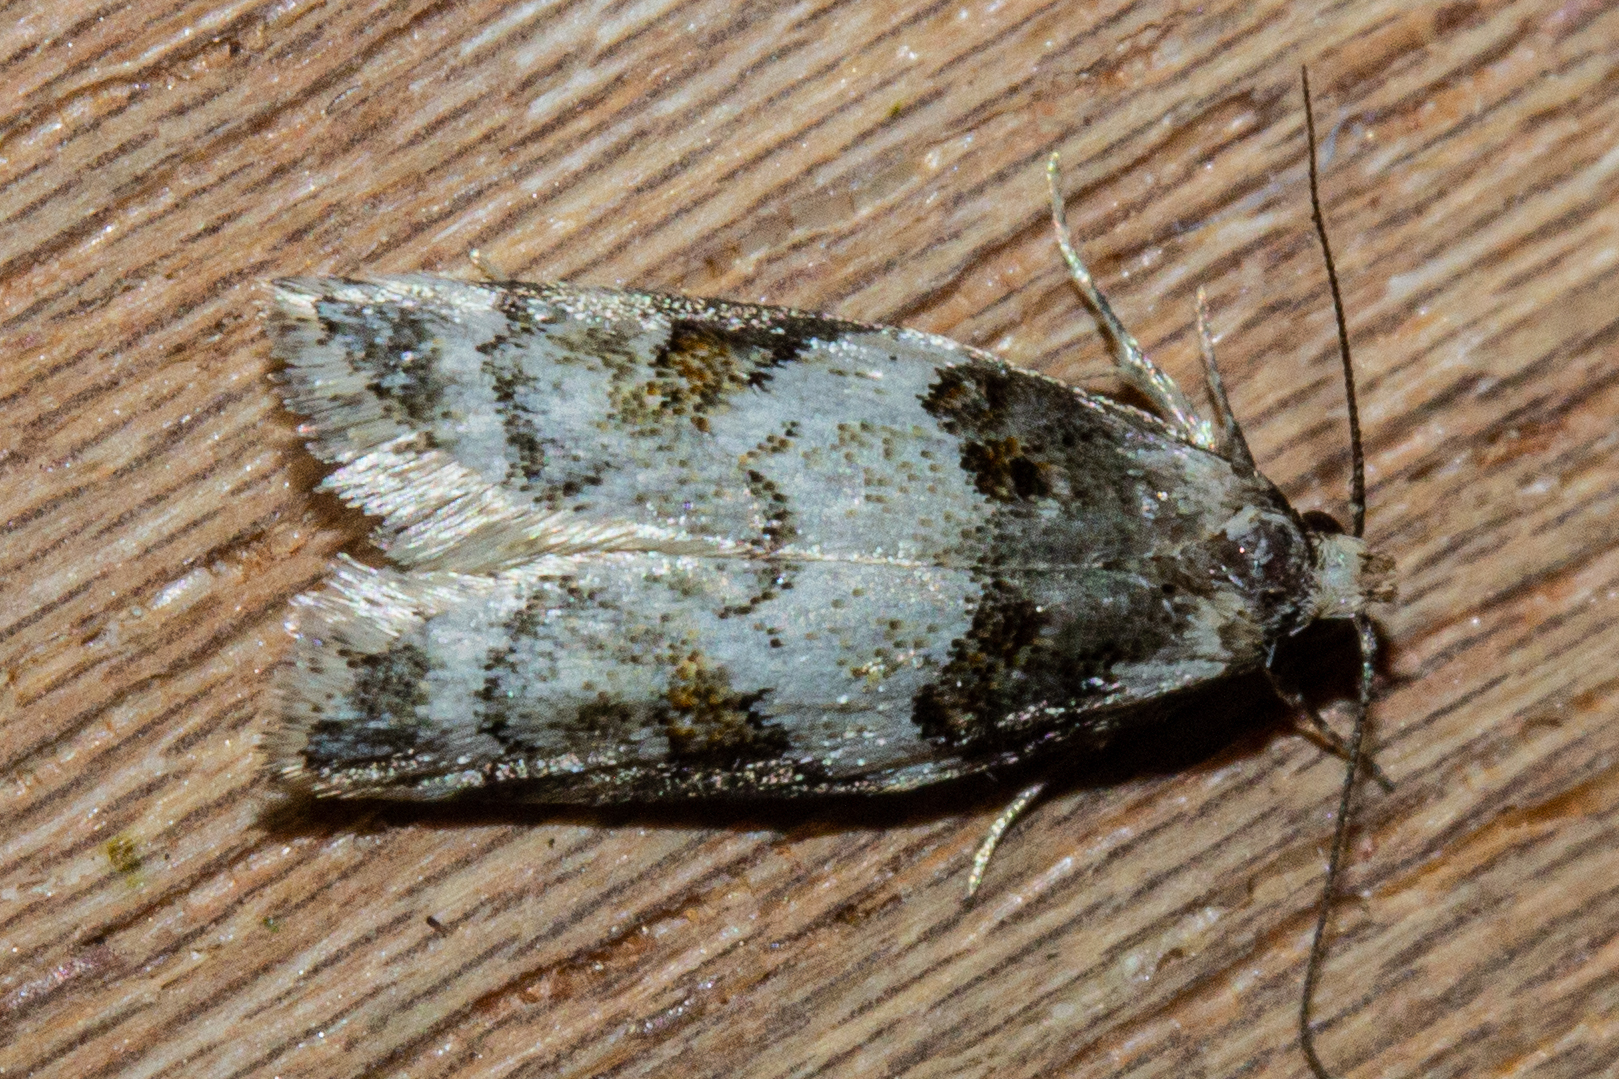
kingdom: Animalia
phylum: Arthropoda
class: Insecta
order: Lepidoptera
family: Oecophoridae
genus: Trachypepla
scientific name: Trachypepla galaxias
